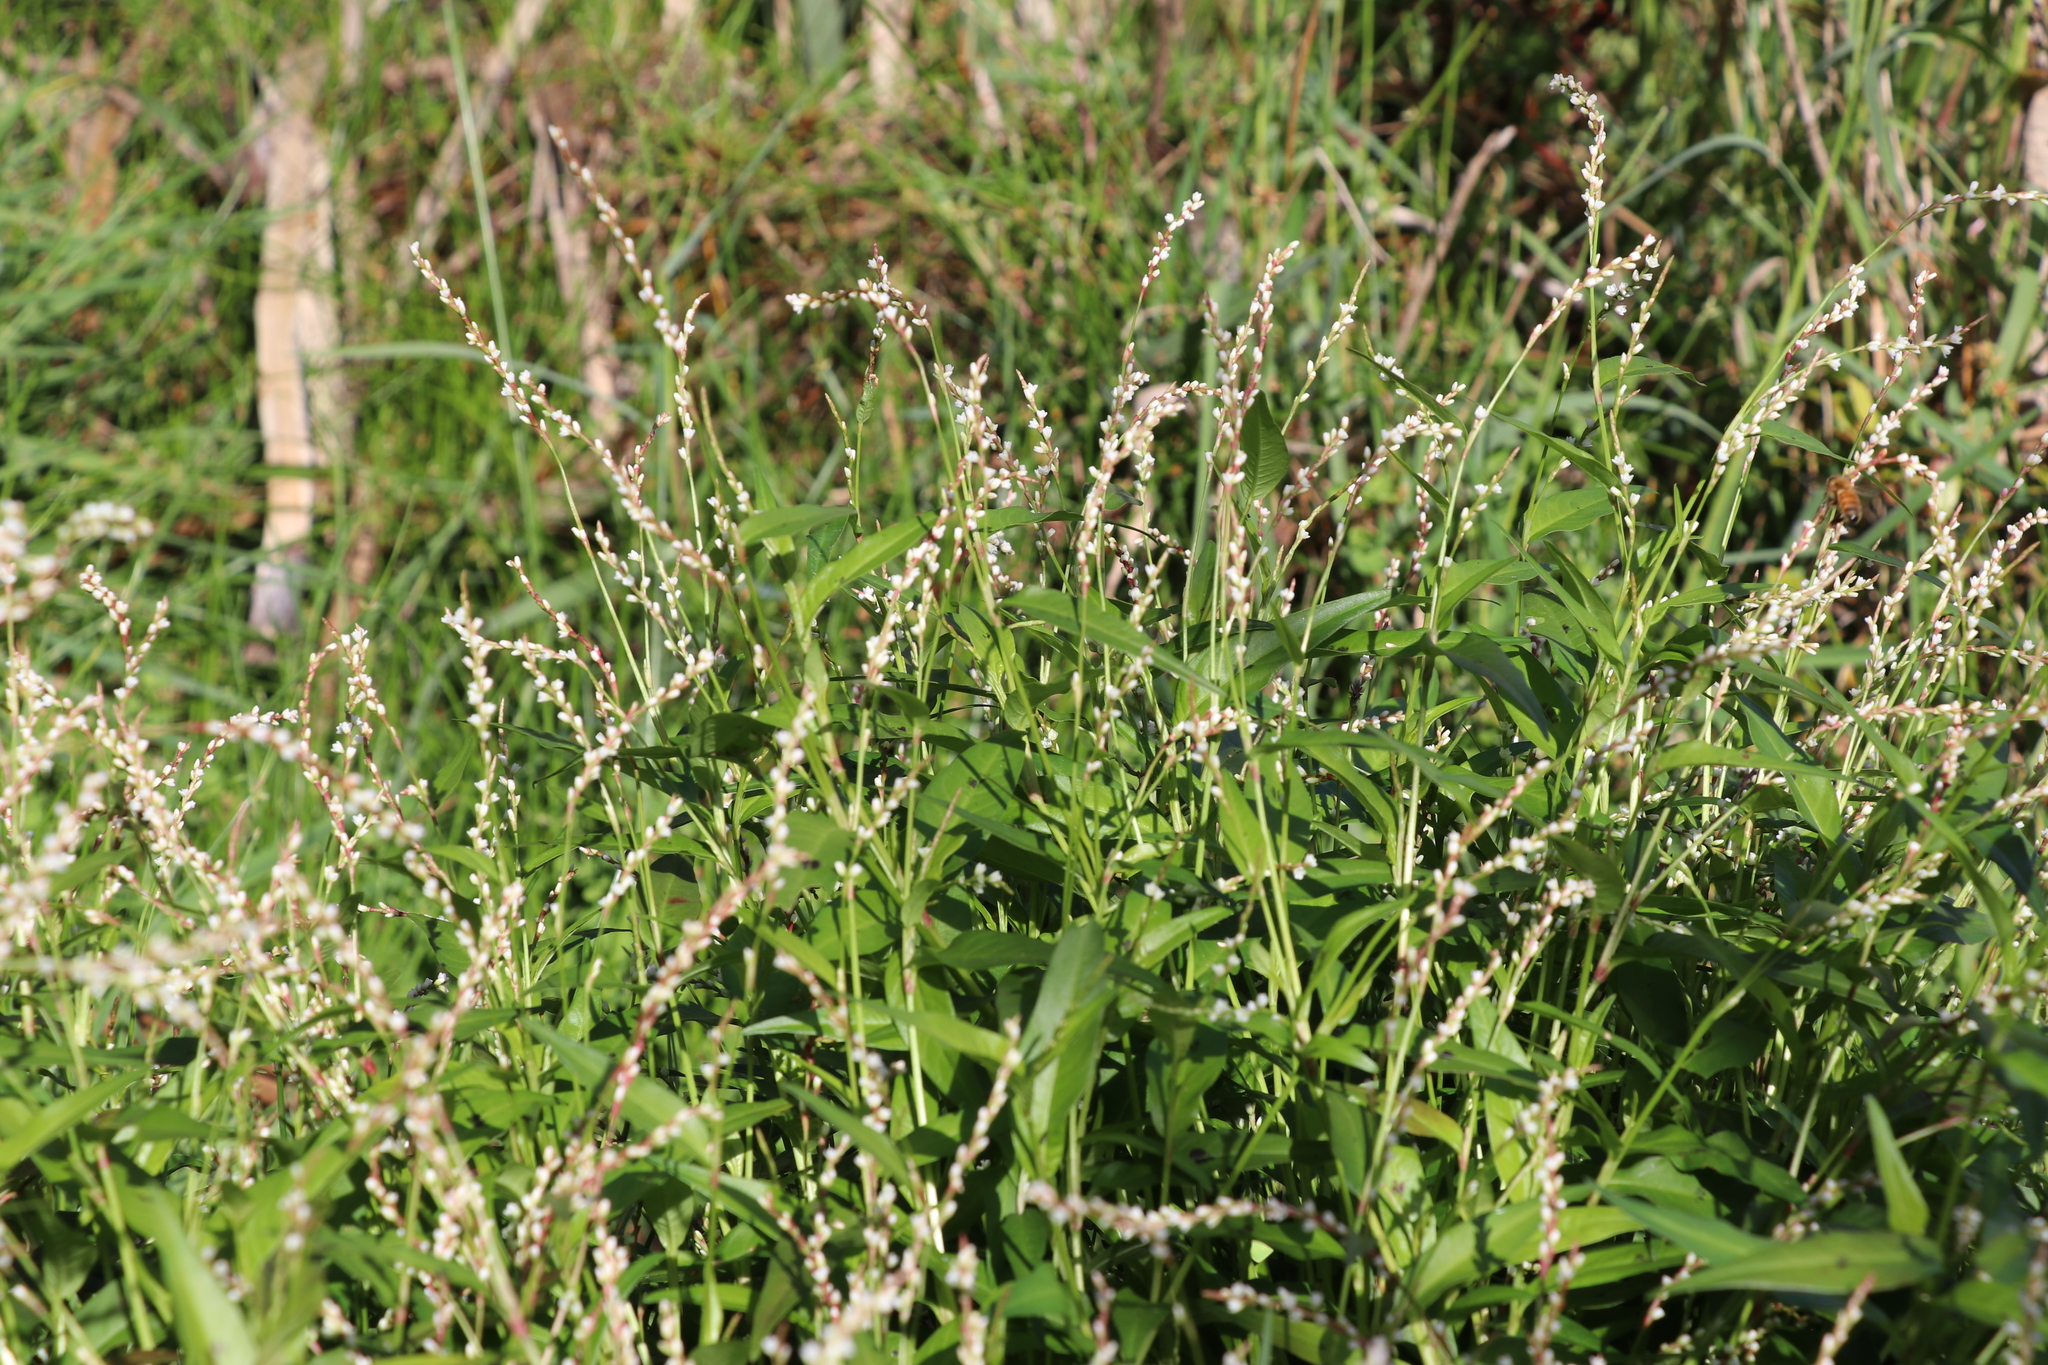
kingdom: Plantae
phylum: Tracheophyta
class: Magnoliopsida
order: Caryophyllales
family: Polygonaceae
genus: Persicaria
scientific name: Persicaria hydropiper
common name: Water-pepper
